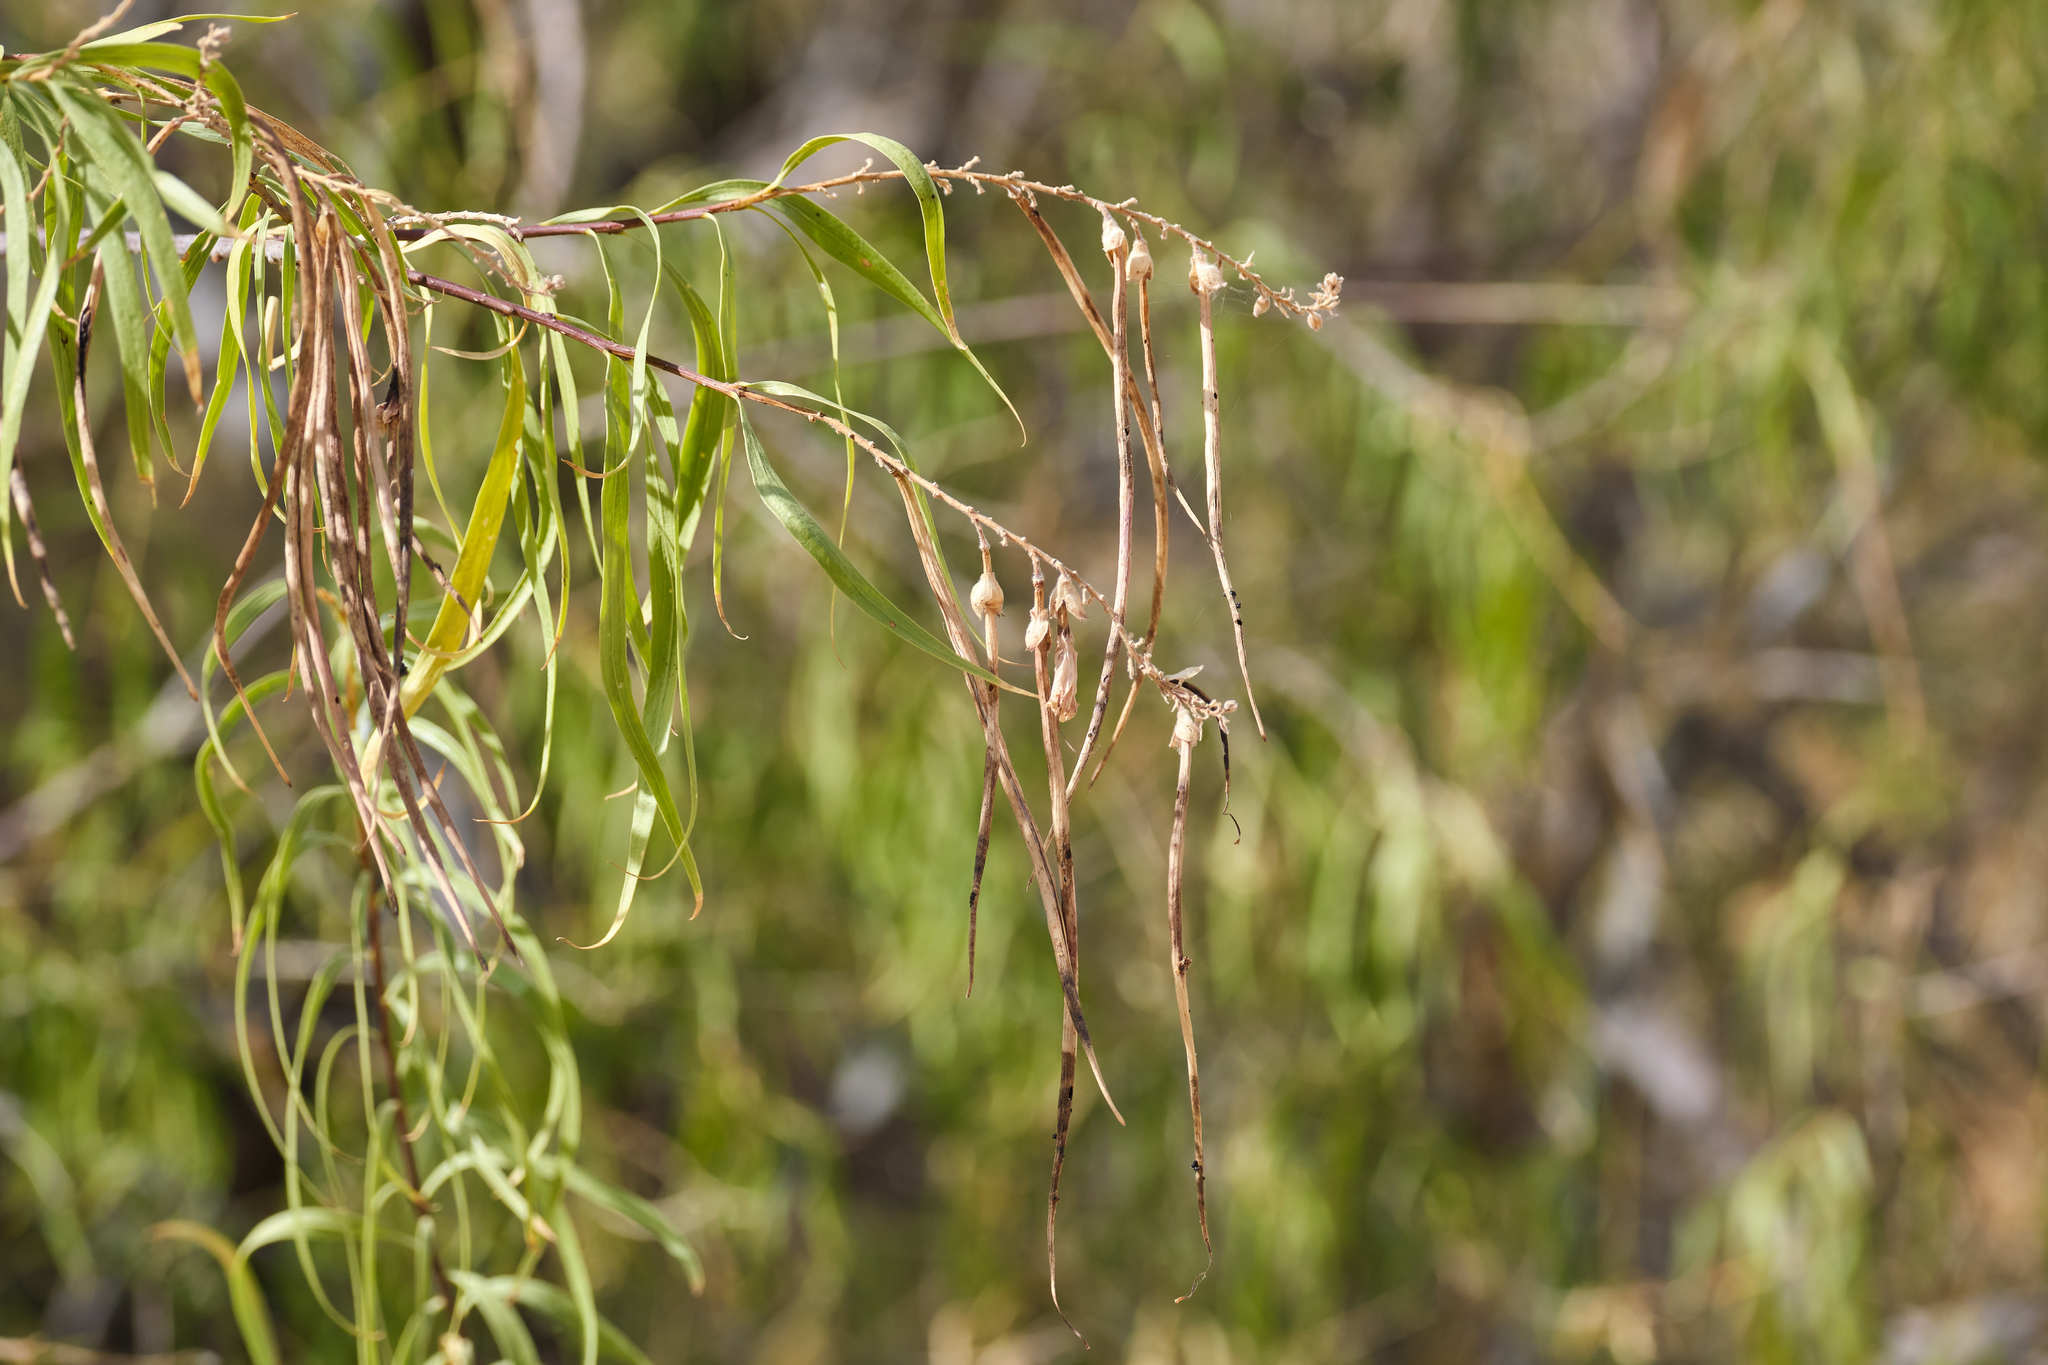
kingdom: Plantae
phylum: Tracheophyta
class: Magnoliopsida
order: Lamiales
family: Bignoniaceae
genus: Chilopsis
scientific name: Chilopsis linearis
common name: Desert-willow
